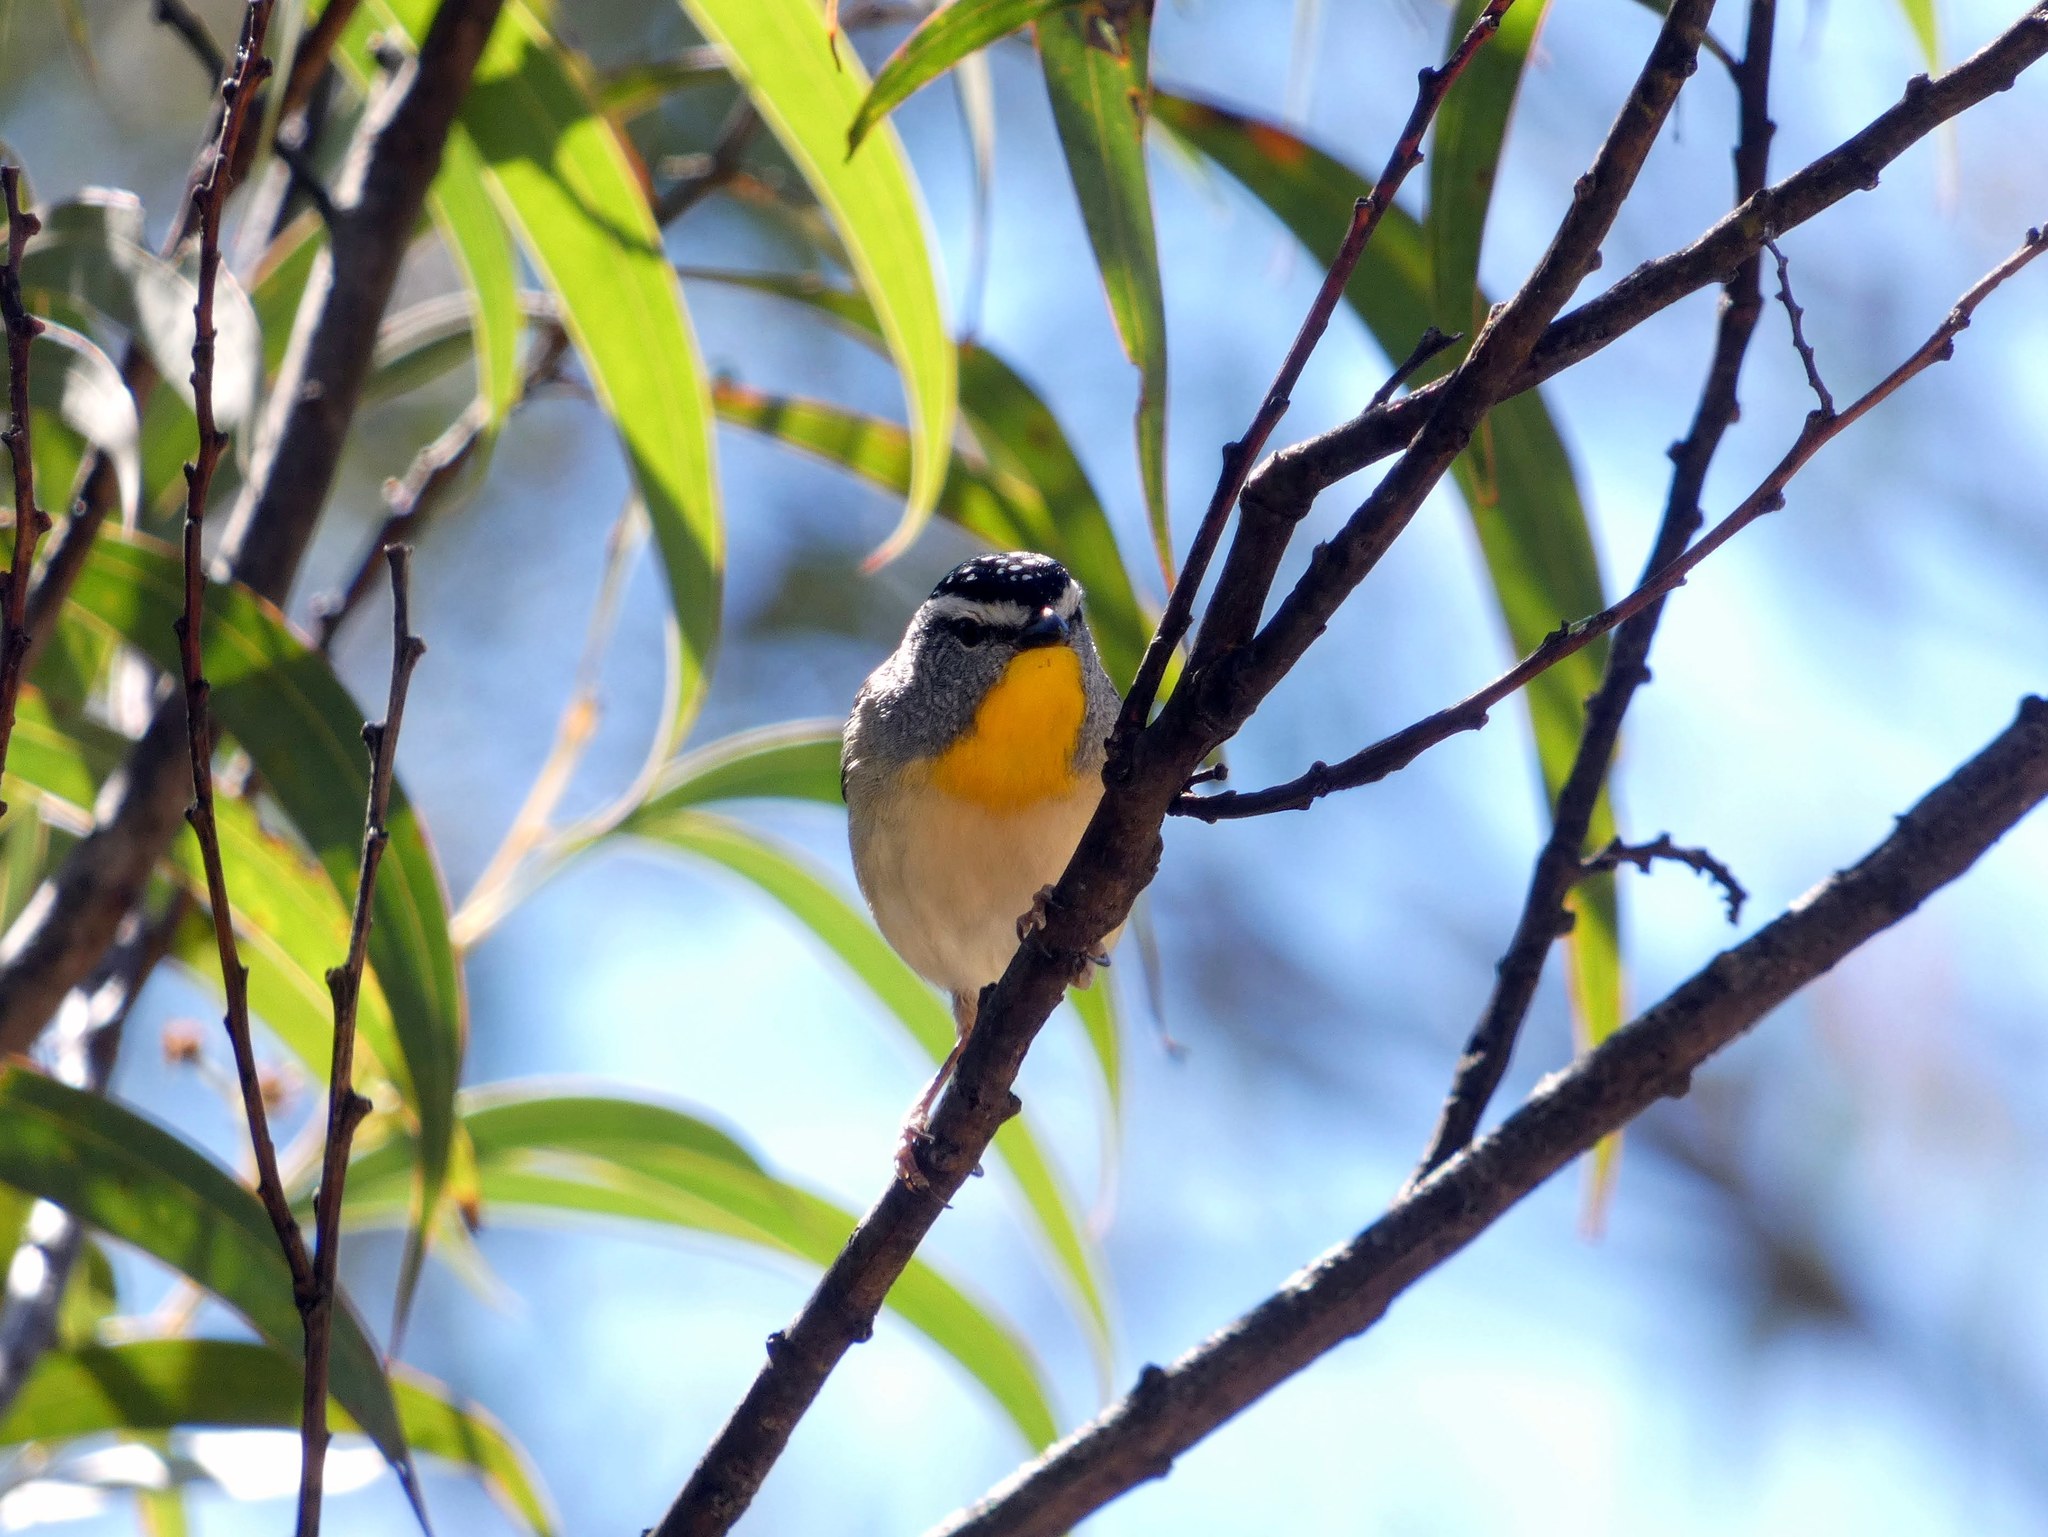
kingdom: Animalia
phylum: Chordata
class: Aves
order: Passeriformes
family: Pardalotidae
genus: Pardalotus
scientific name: Pardalotus punctatus
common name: Spotted pardalote
